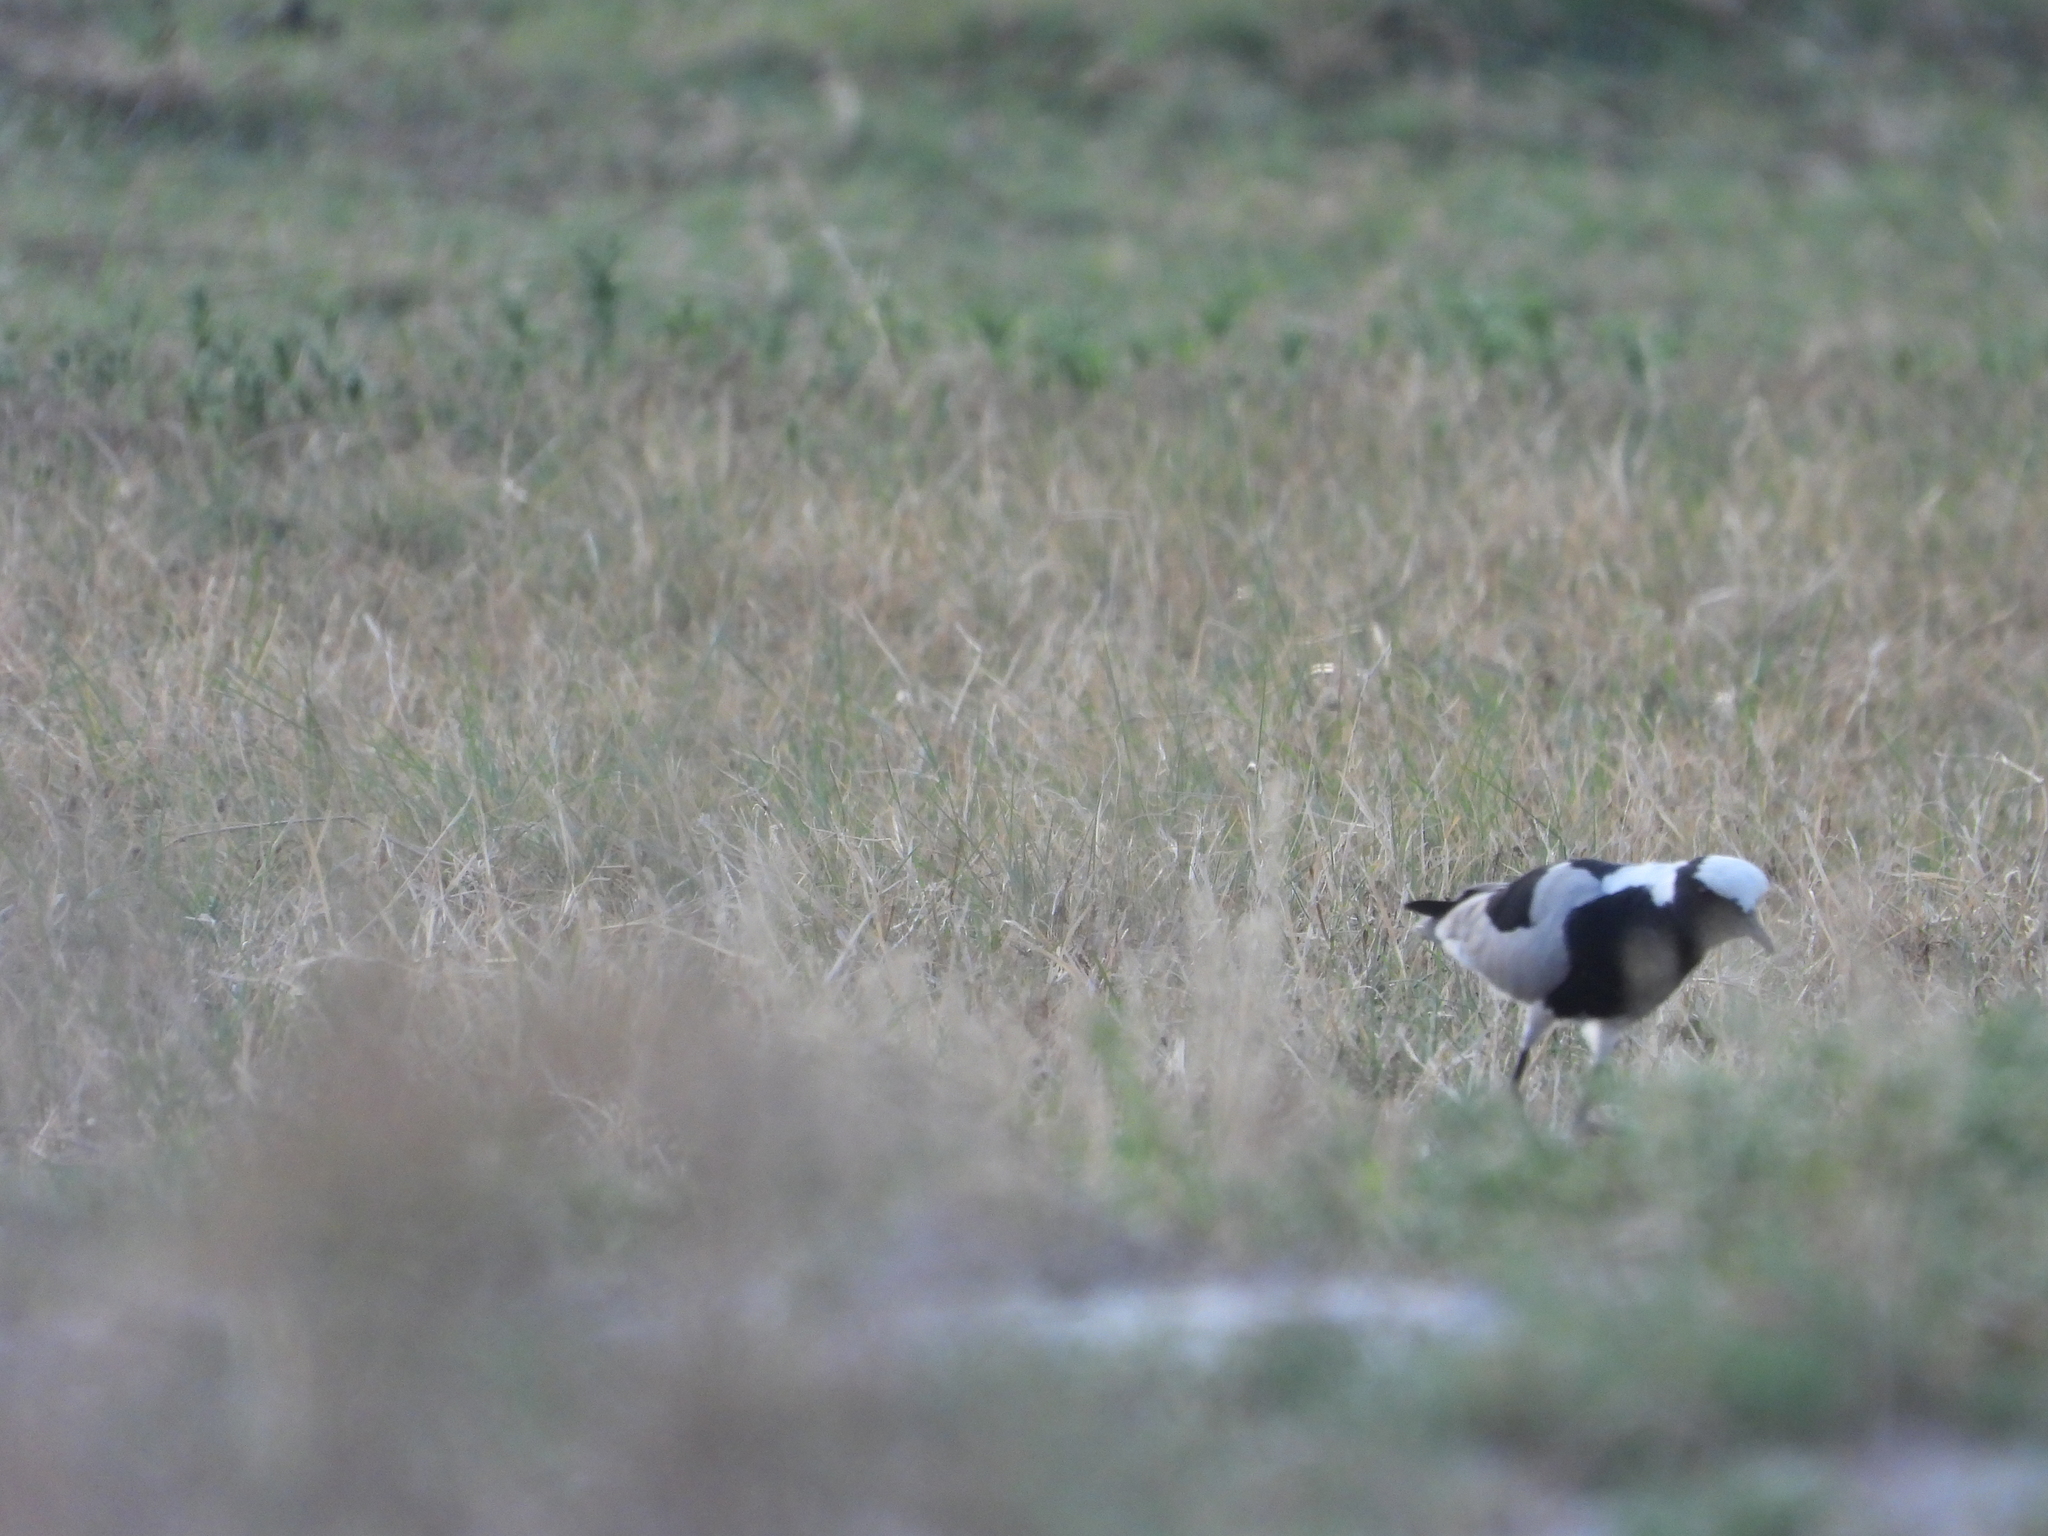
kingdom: Animalia
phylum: Chordata
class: Aves
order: Charadriiformes
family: Charadriidae
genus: Vanellus
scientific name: Vanellus armatus
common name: Blacksmith lapwing
